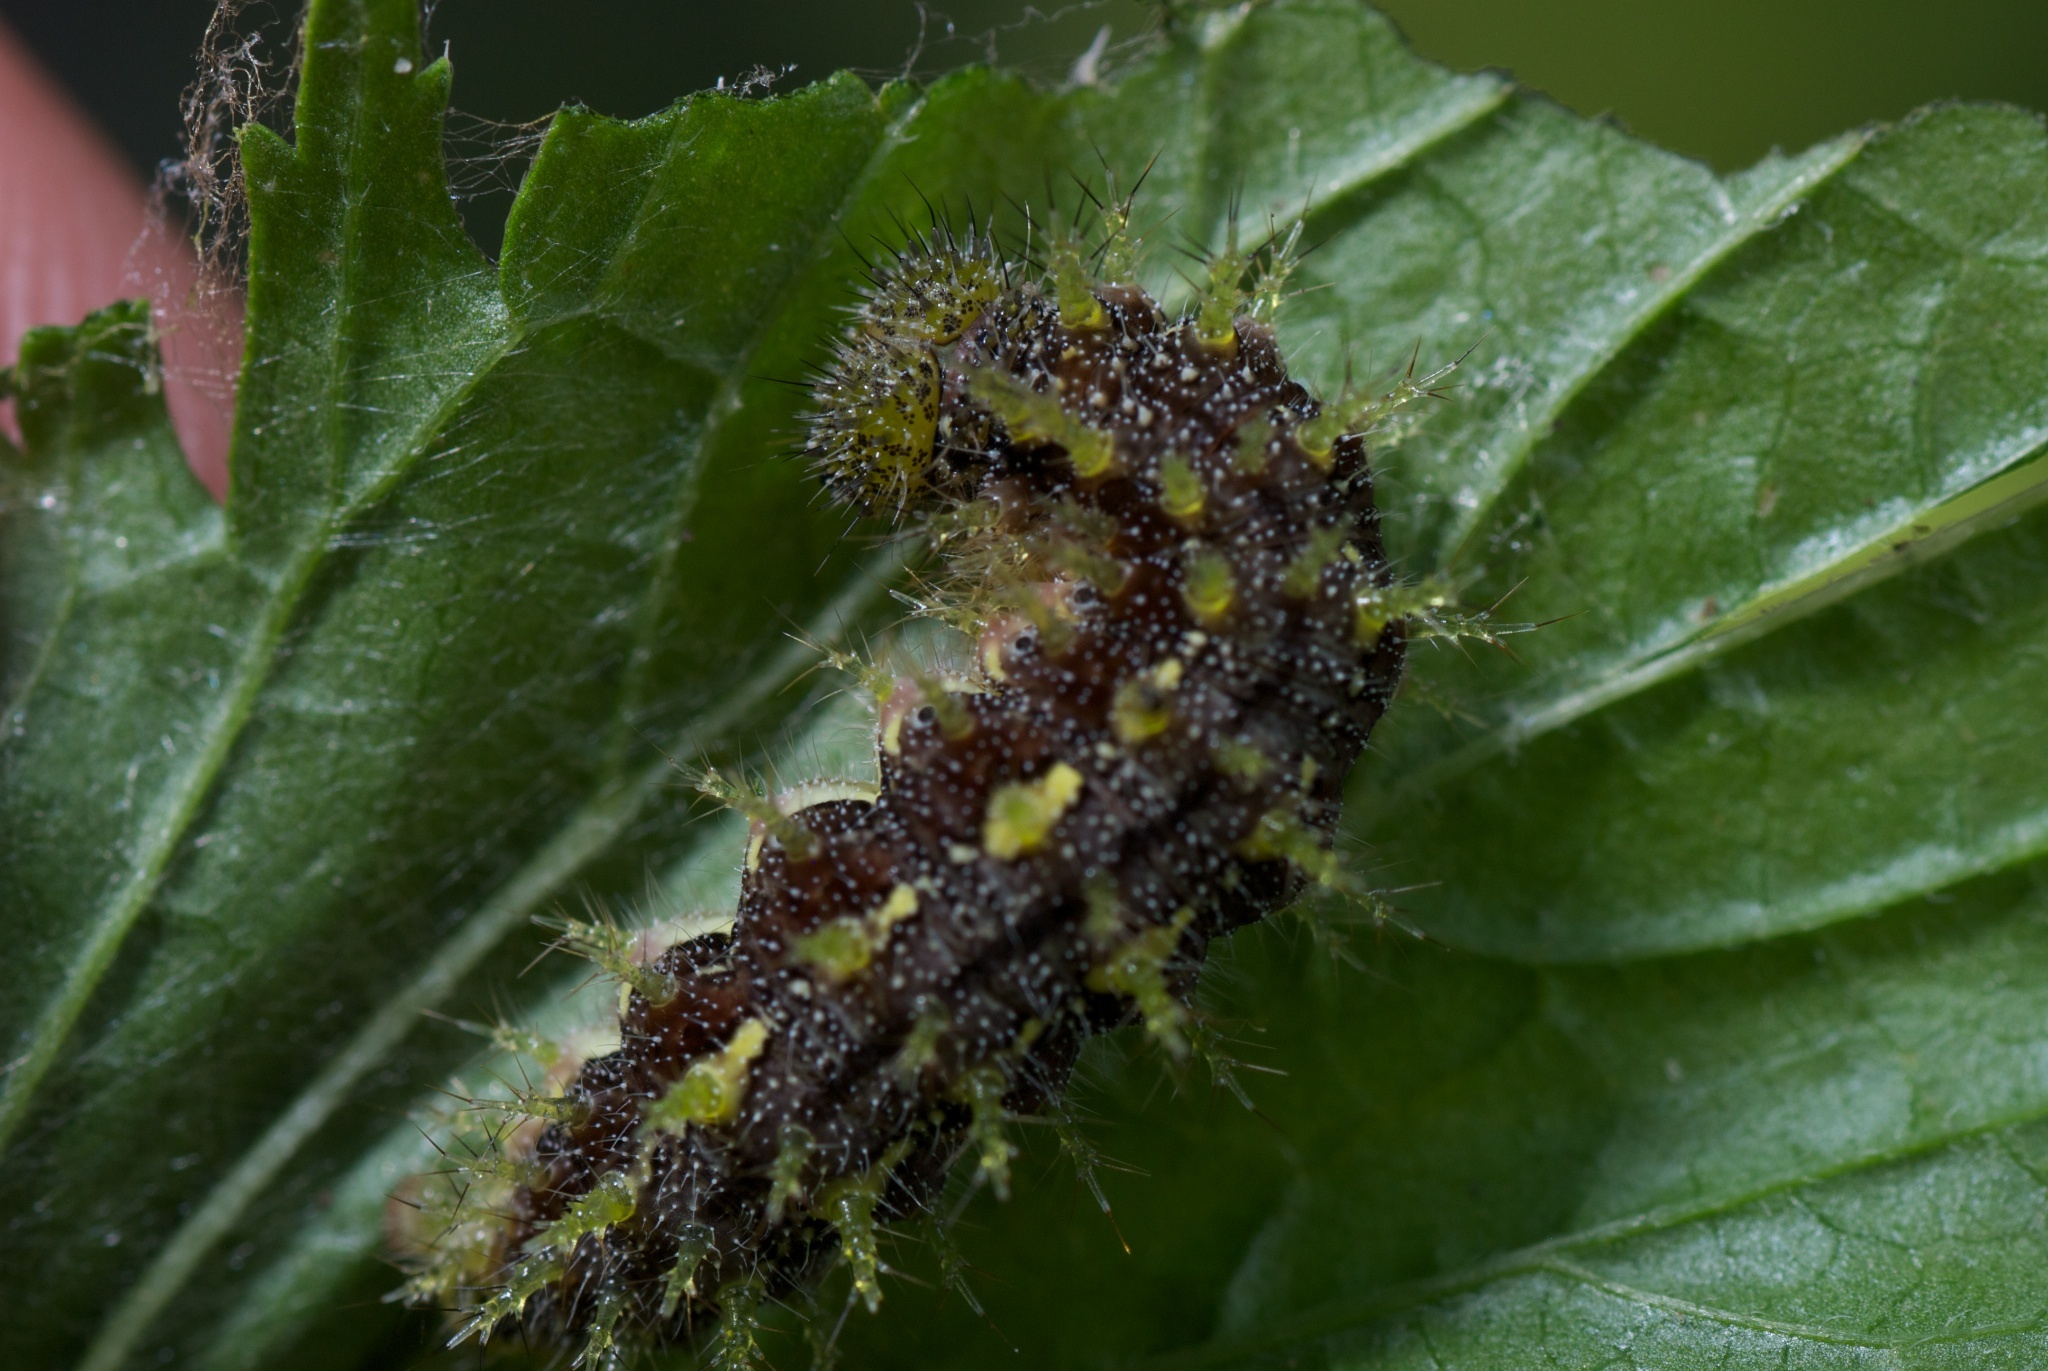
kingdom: Animalia
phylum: Arthropoda
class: Insecta
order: Lepidoptera
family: Nymphalidae
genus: Vanessa
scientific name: Vanessa itea
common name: Yellow admiral
